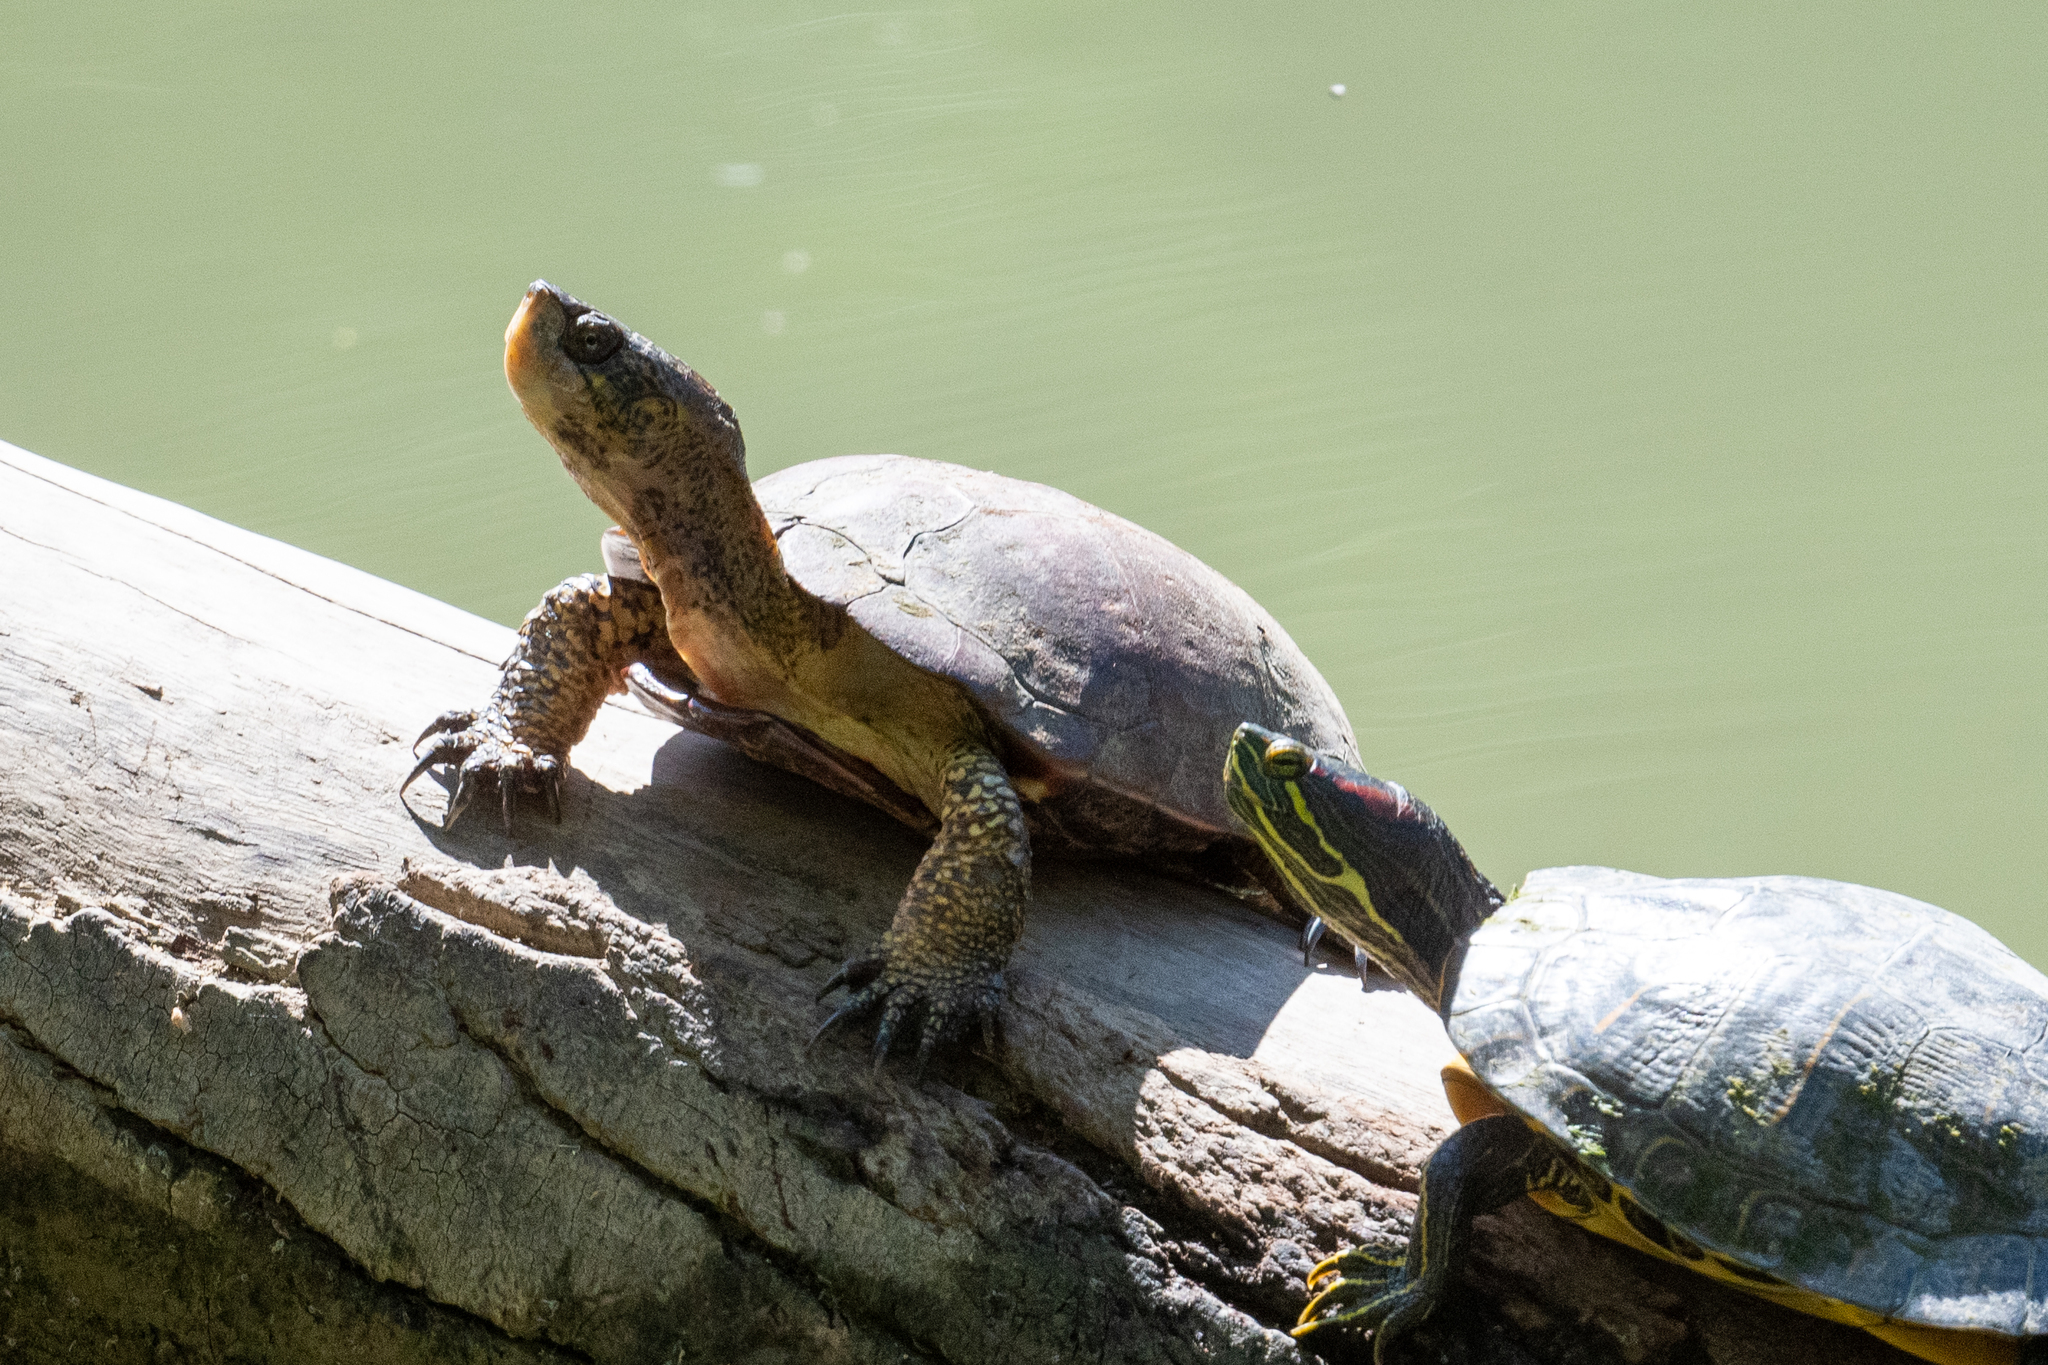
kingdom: Animalia
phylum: Chordata
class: Testudines
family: Emydidae
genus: Actinemys
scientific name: Actinemys marmorata
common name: Western pond turtle
